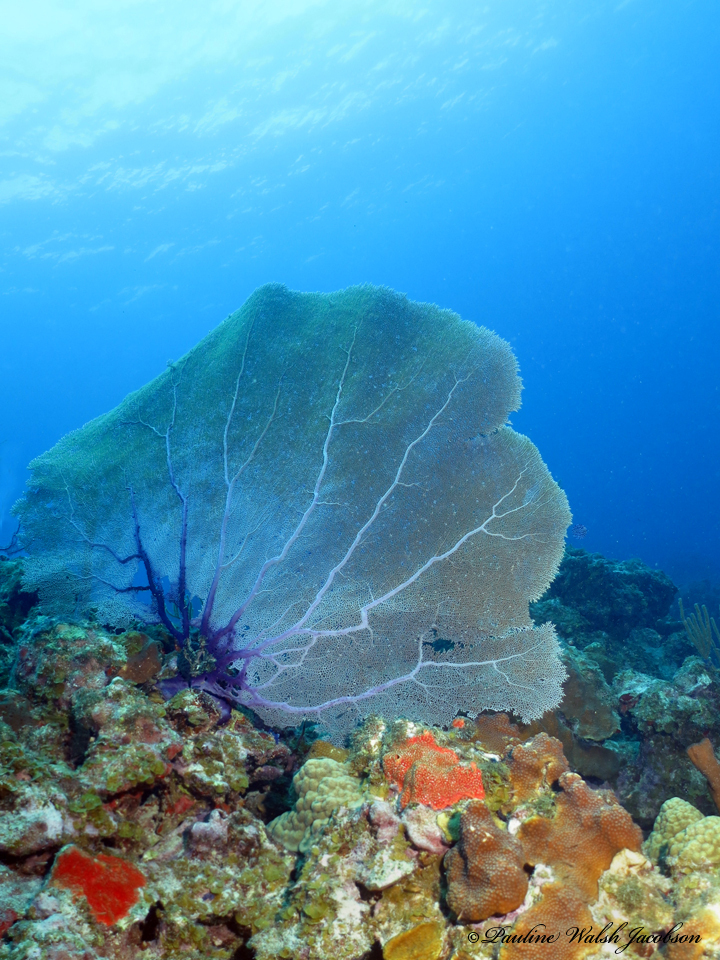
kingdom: Animalia
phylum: Cnidaria
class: Anthozoa
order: Malacalcyonacea
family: Gorgoniidae
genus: Gorgonia
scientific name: Gorgonia ventalina
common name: Common sea fan
